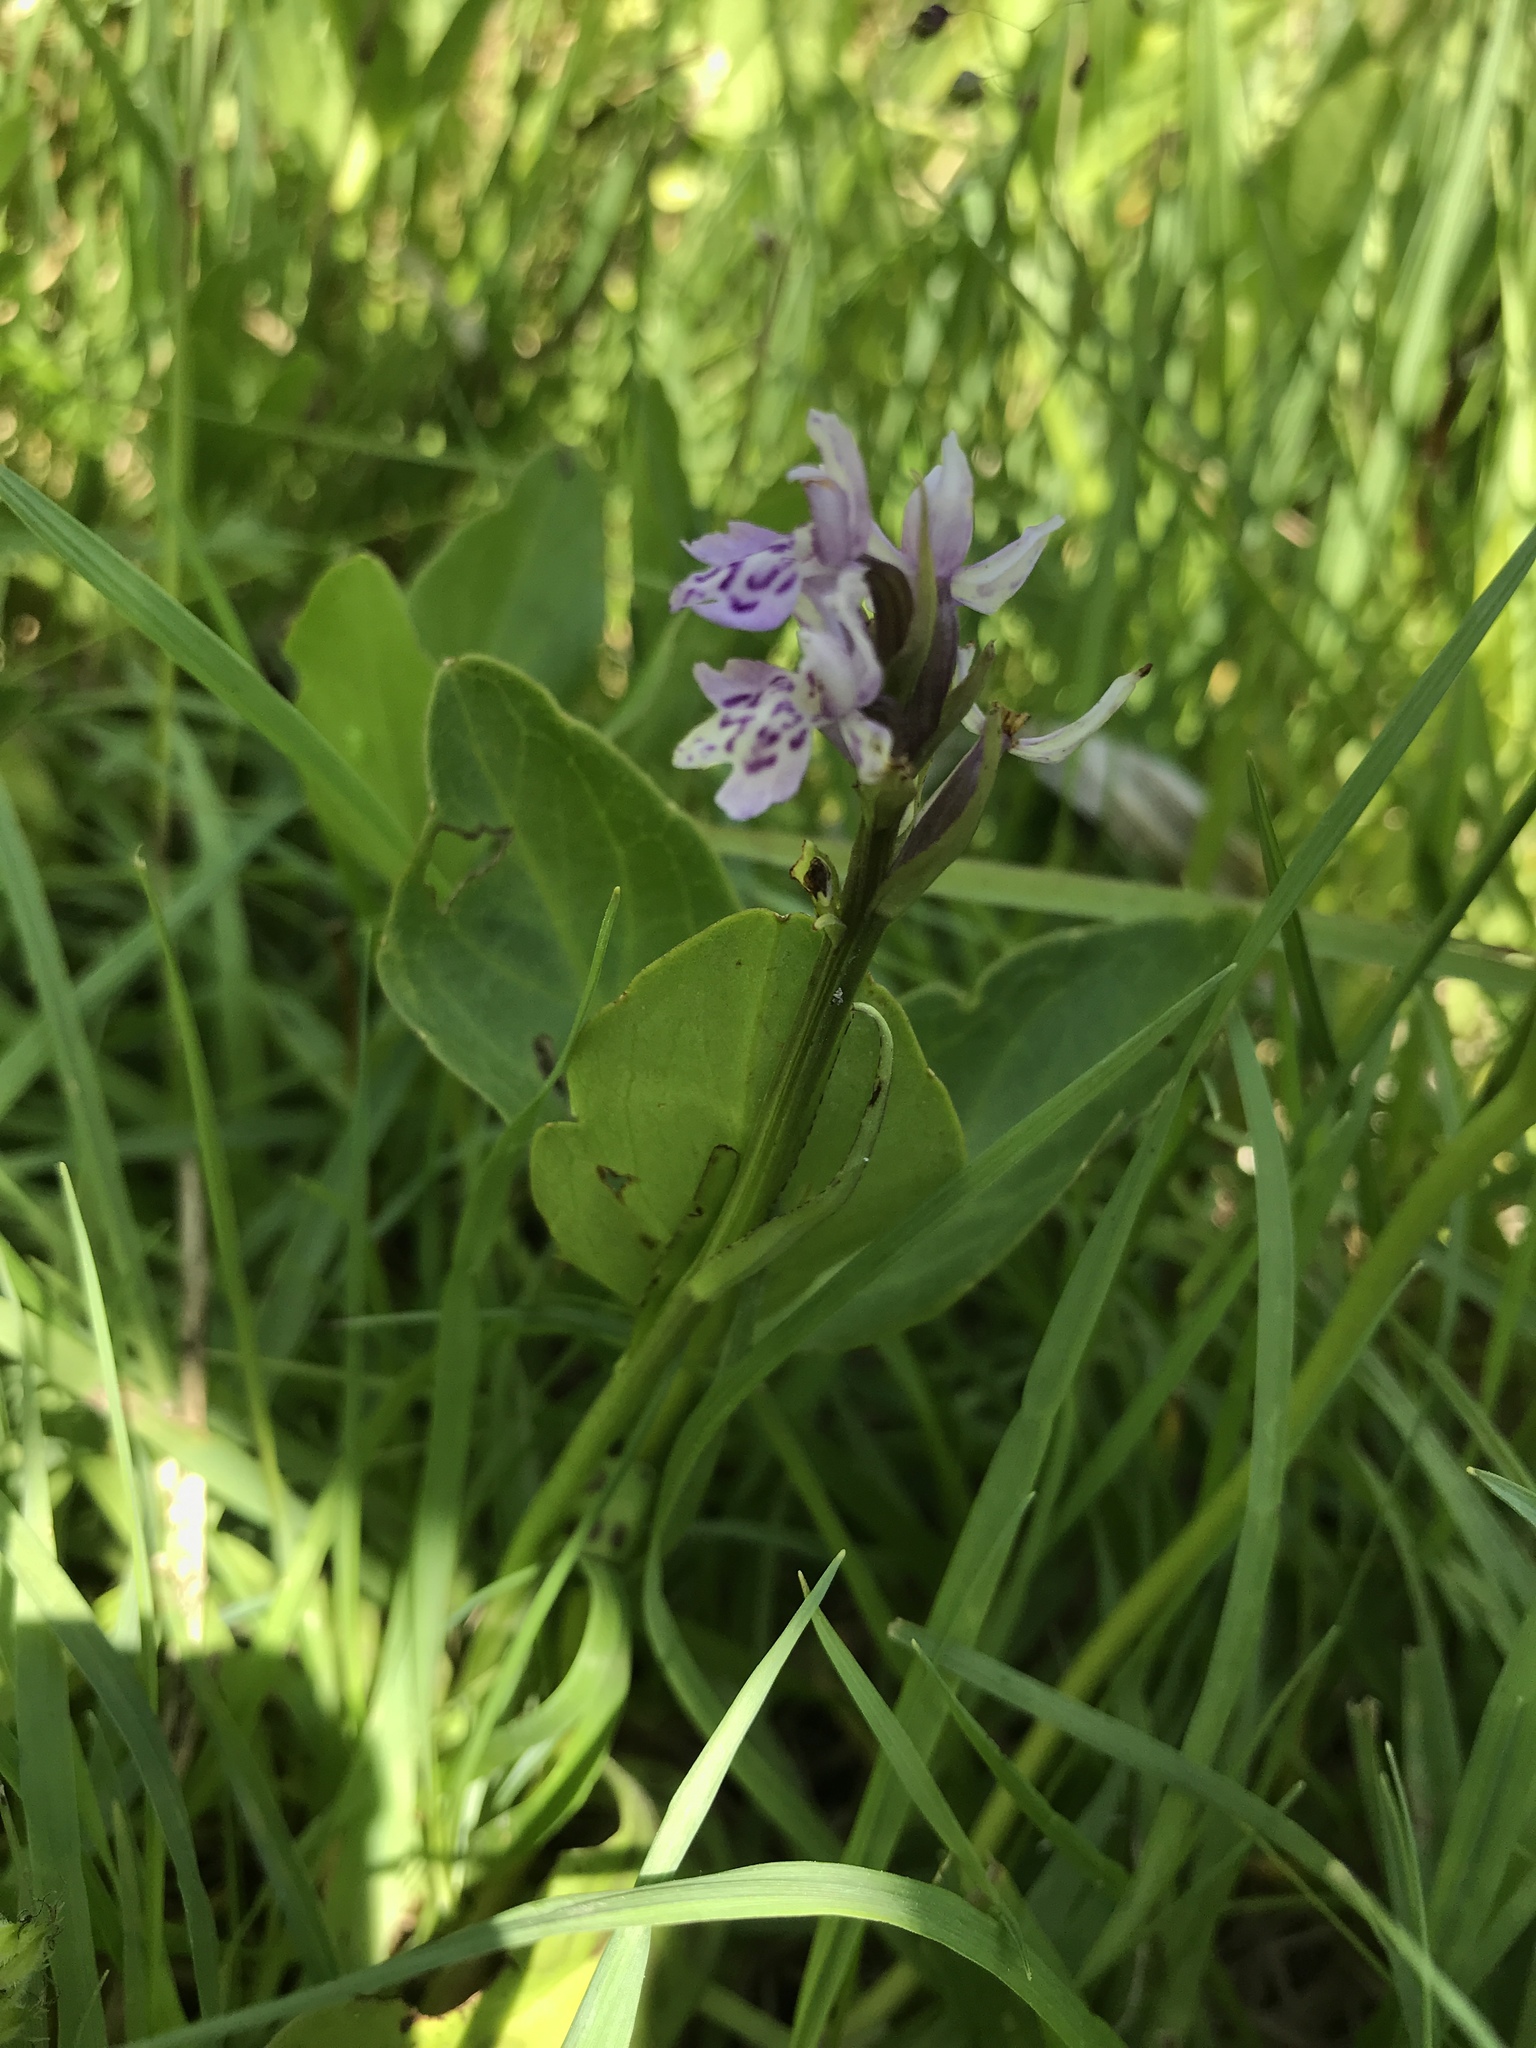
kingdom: Plantae
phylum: Tracheophyta
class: Liliopsida
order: Asparagales
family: Orchidaceae
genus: Dactylorhiza
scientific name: Dactylorhiza maculata
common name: Heath spotted-orchid
